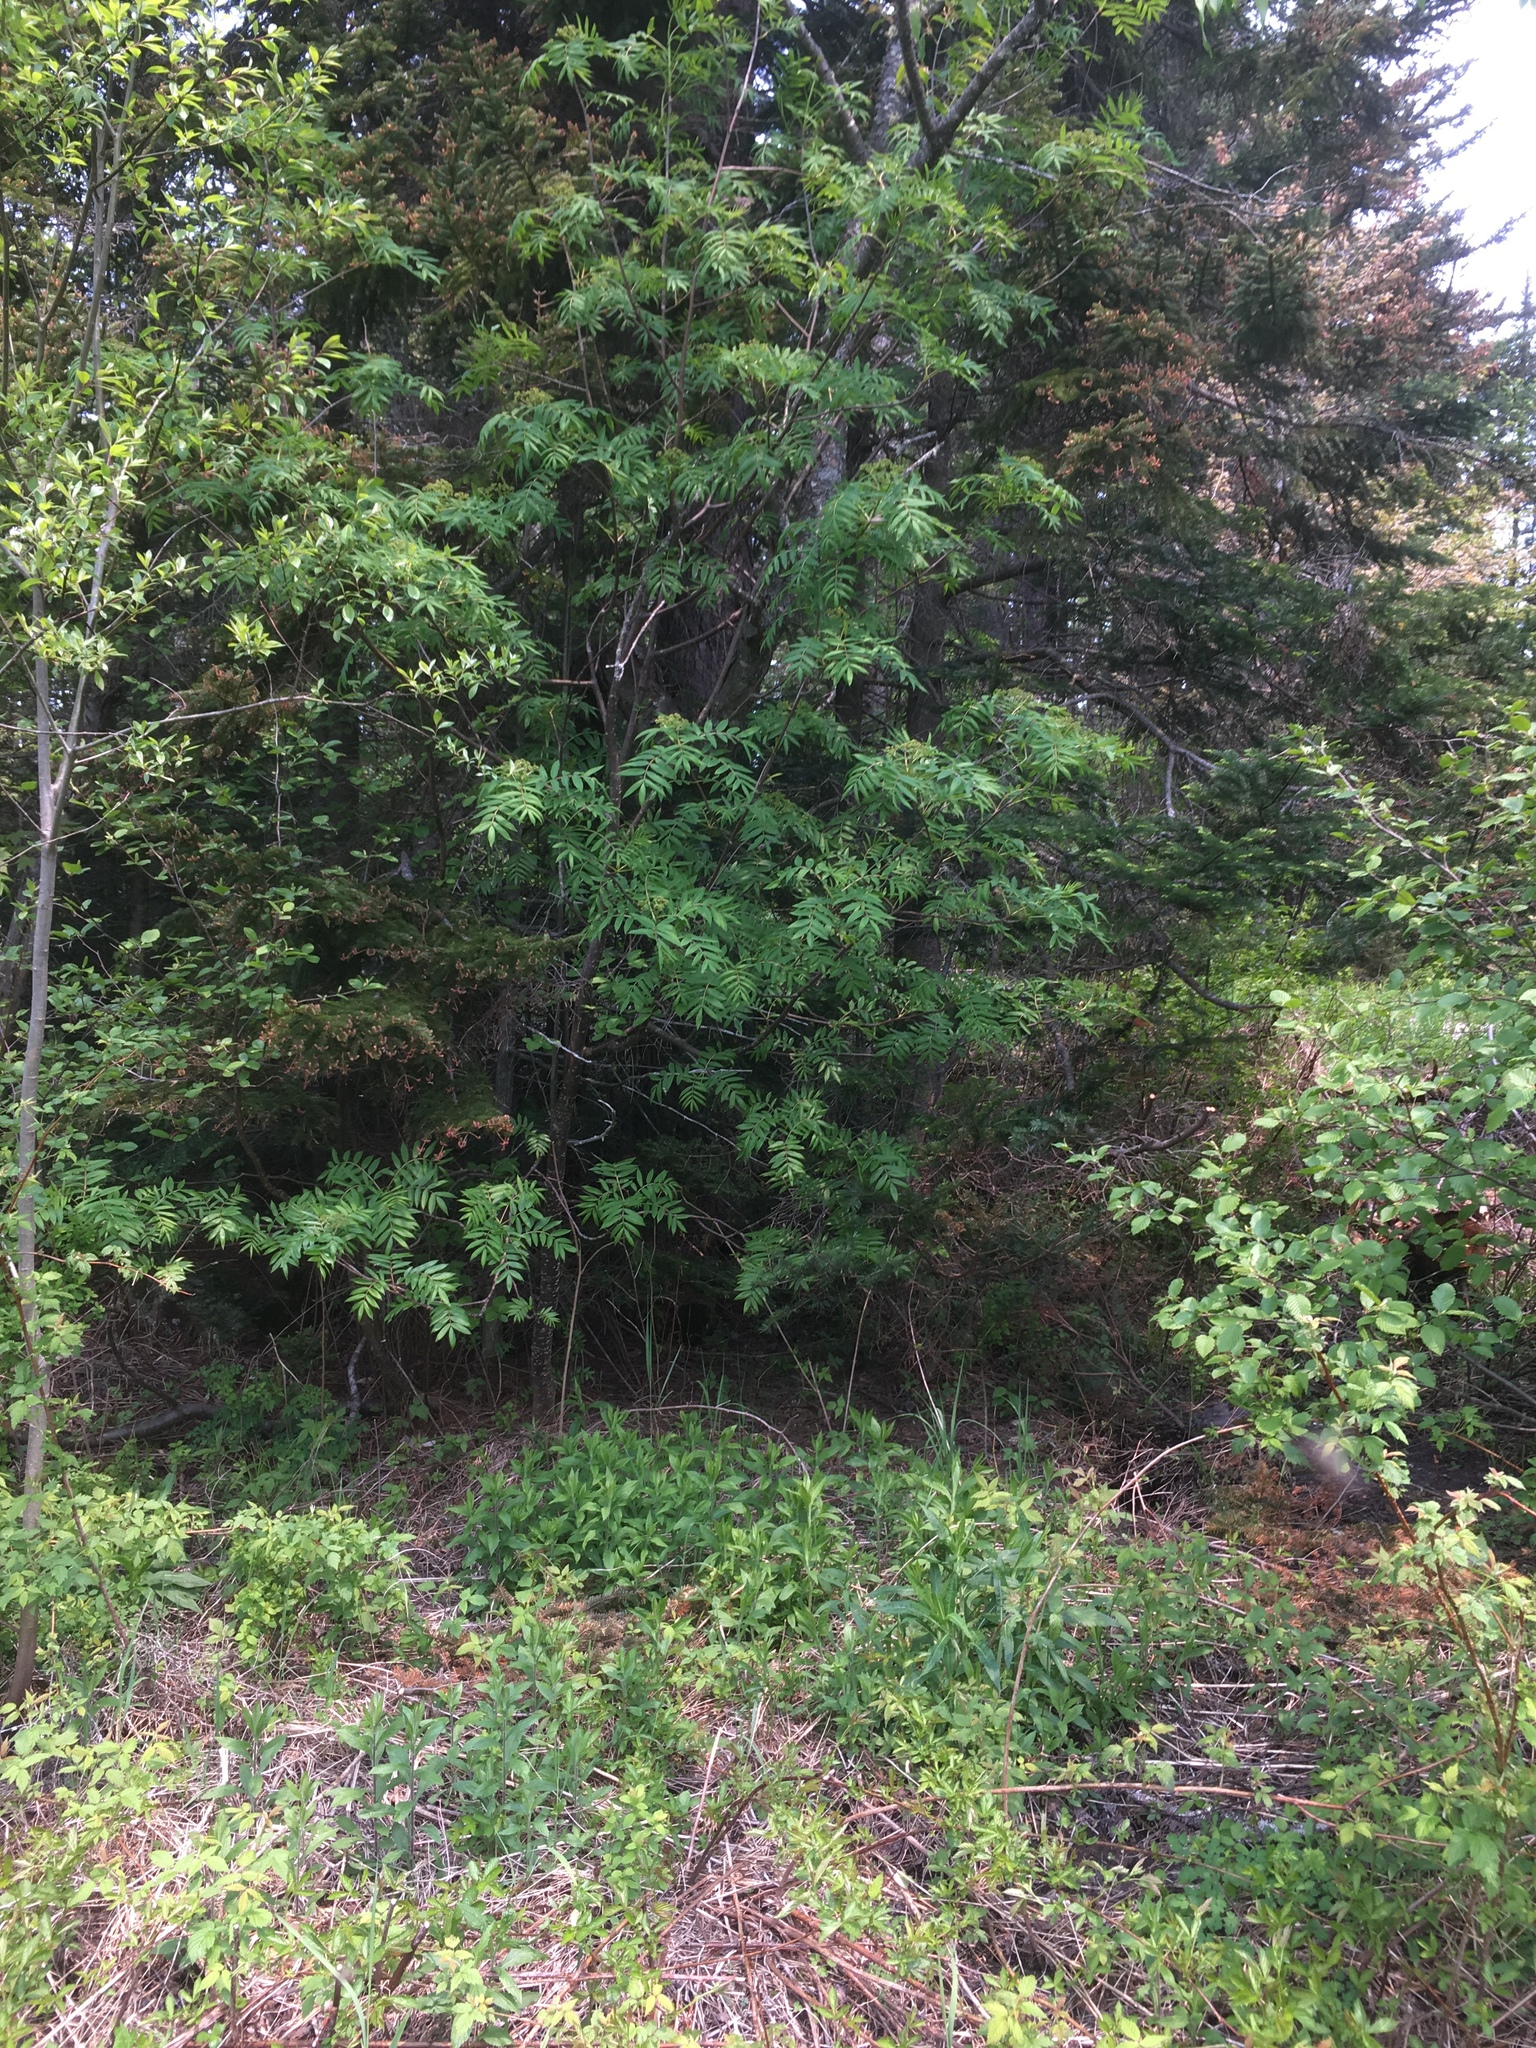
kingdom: Plantae
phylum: Tracheophyta
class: Magnoliopsida
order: Rosales
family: Rosaceae
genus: Sorbus
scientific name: Sorbus americana
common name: American mountain-ash
